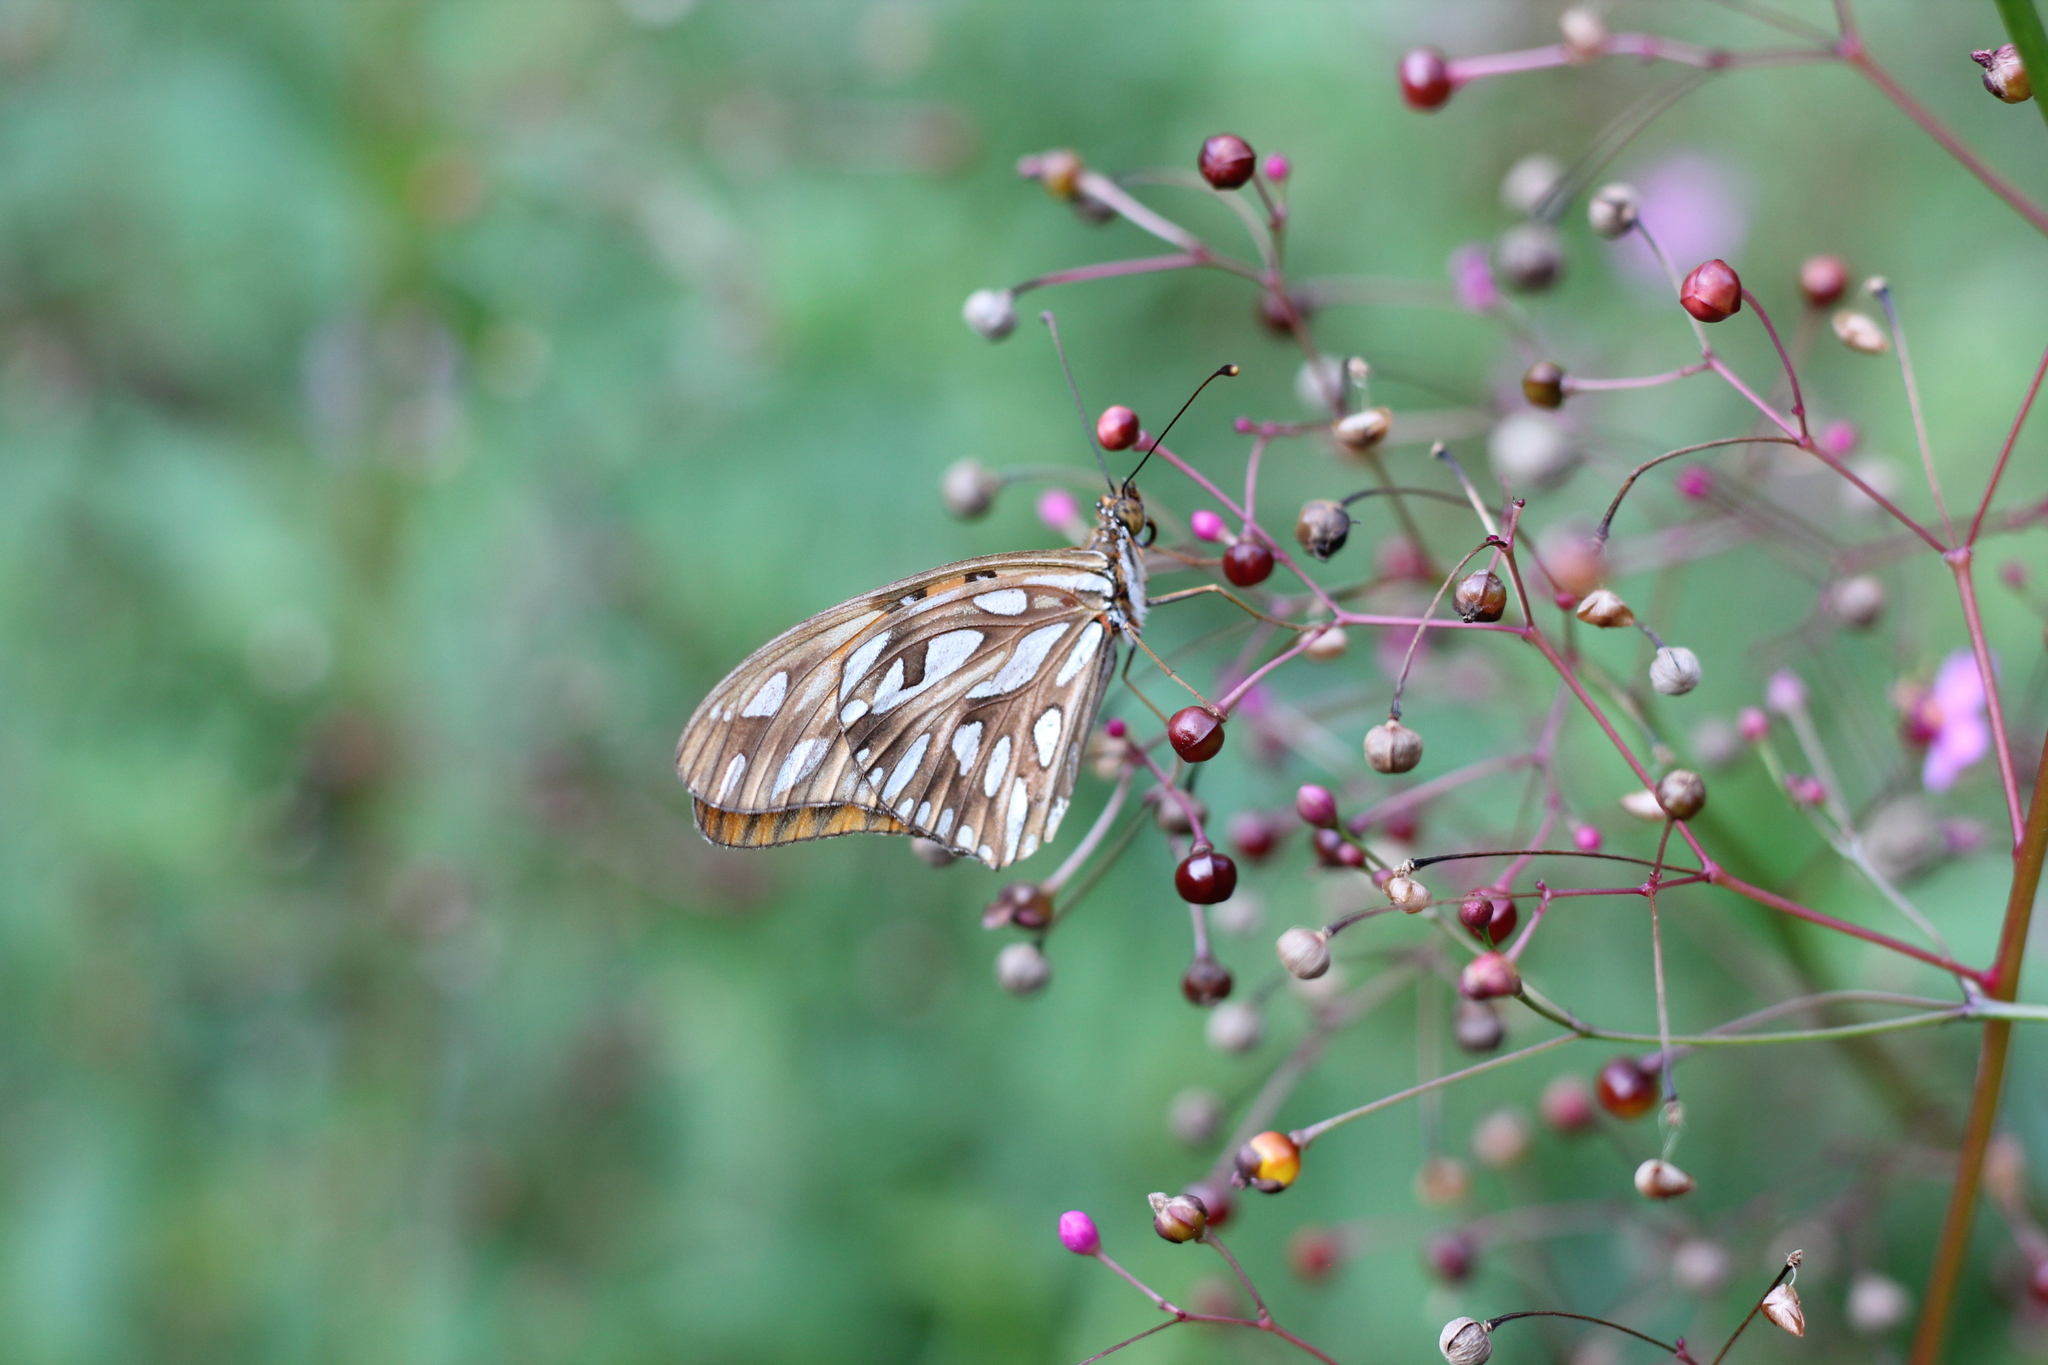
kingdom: Animalia
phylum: Arthropoda
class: Insecta
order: Lepidoptera
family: Nymphalidae
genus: Dione
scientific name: Dione vanillae
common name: Gulf fritillary
